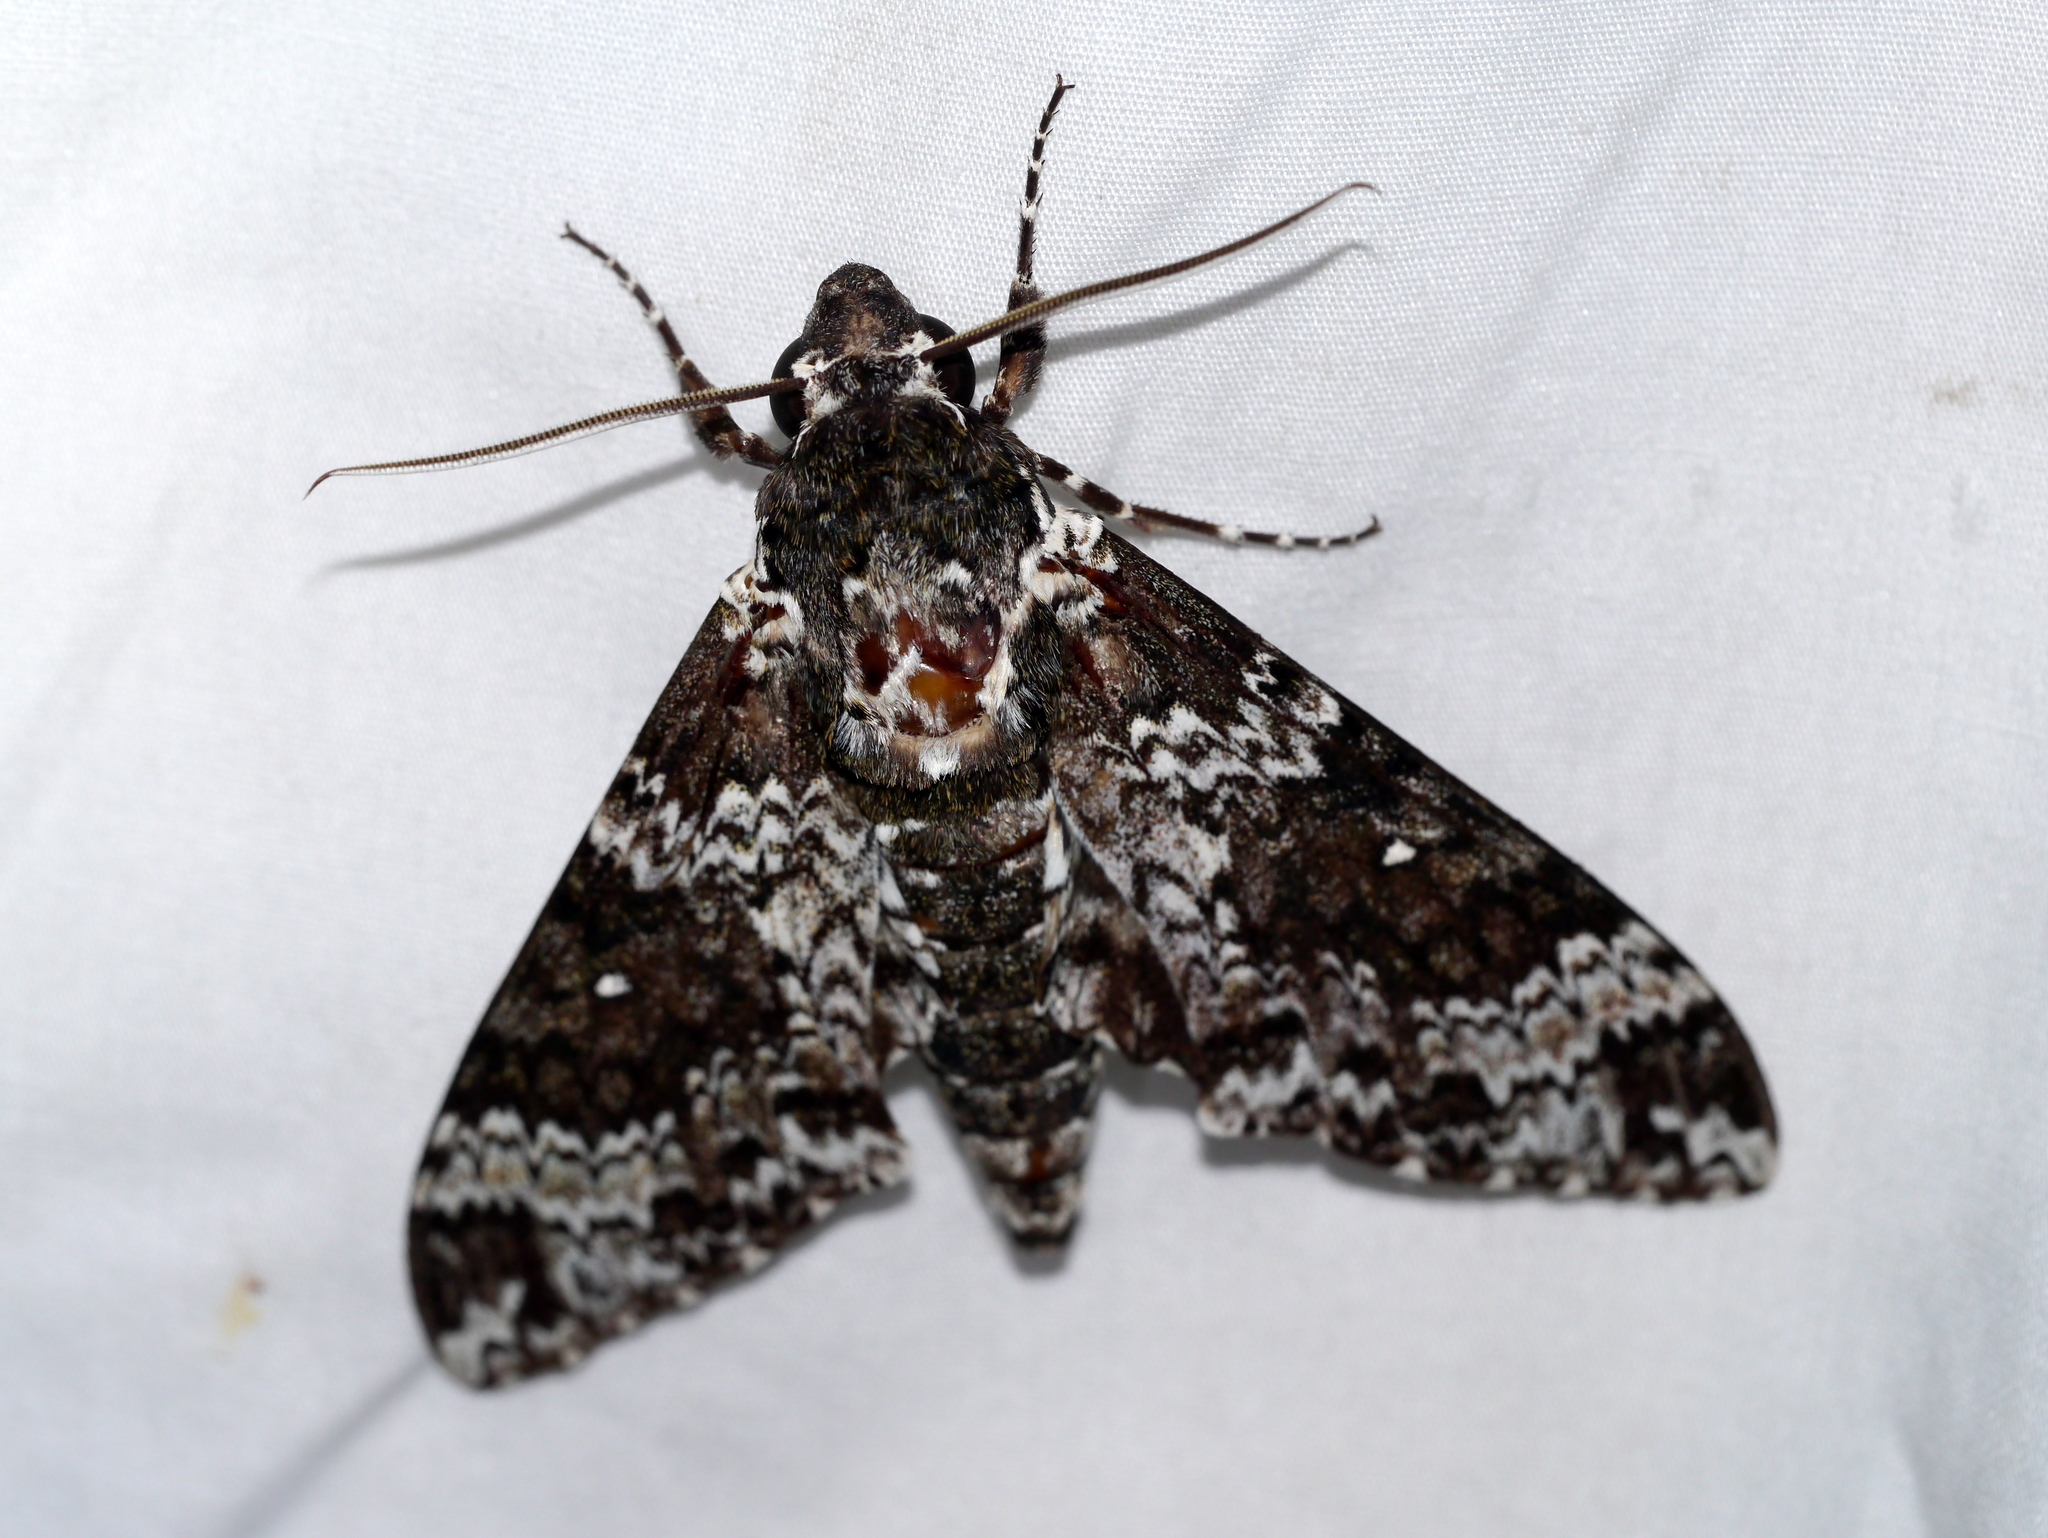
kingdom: Animalia
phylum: Arthropoda
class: Insecta
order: Lepidoptera
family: Sphingidae
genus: Manduca
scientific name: Manduca rustica
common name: Rustic sphinx
